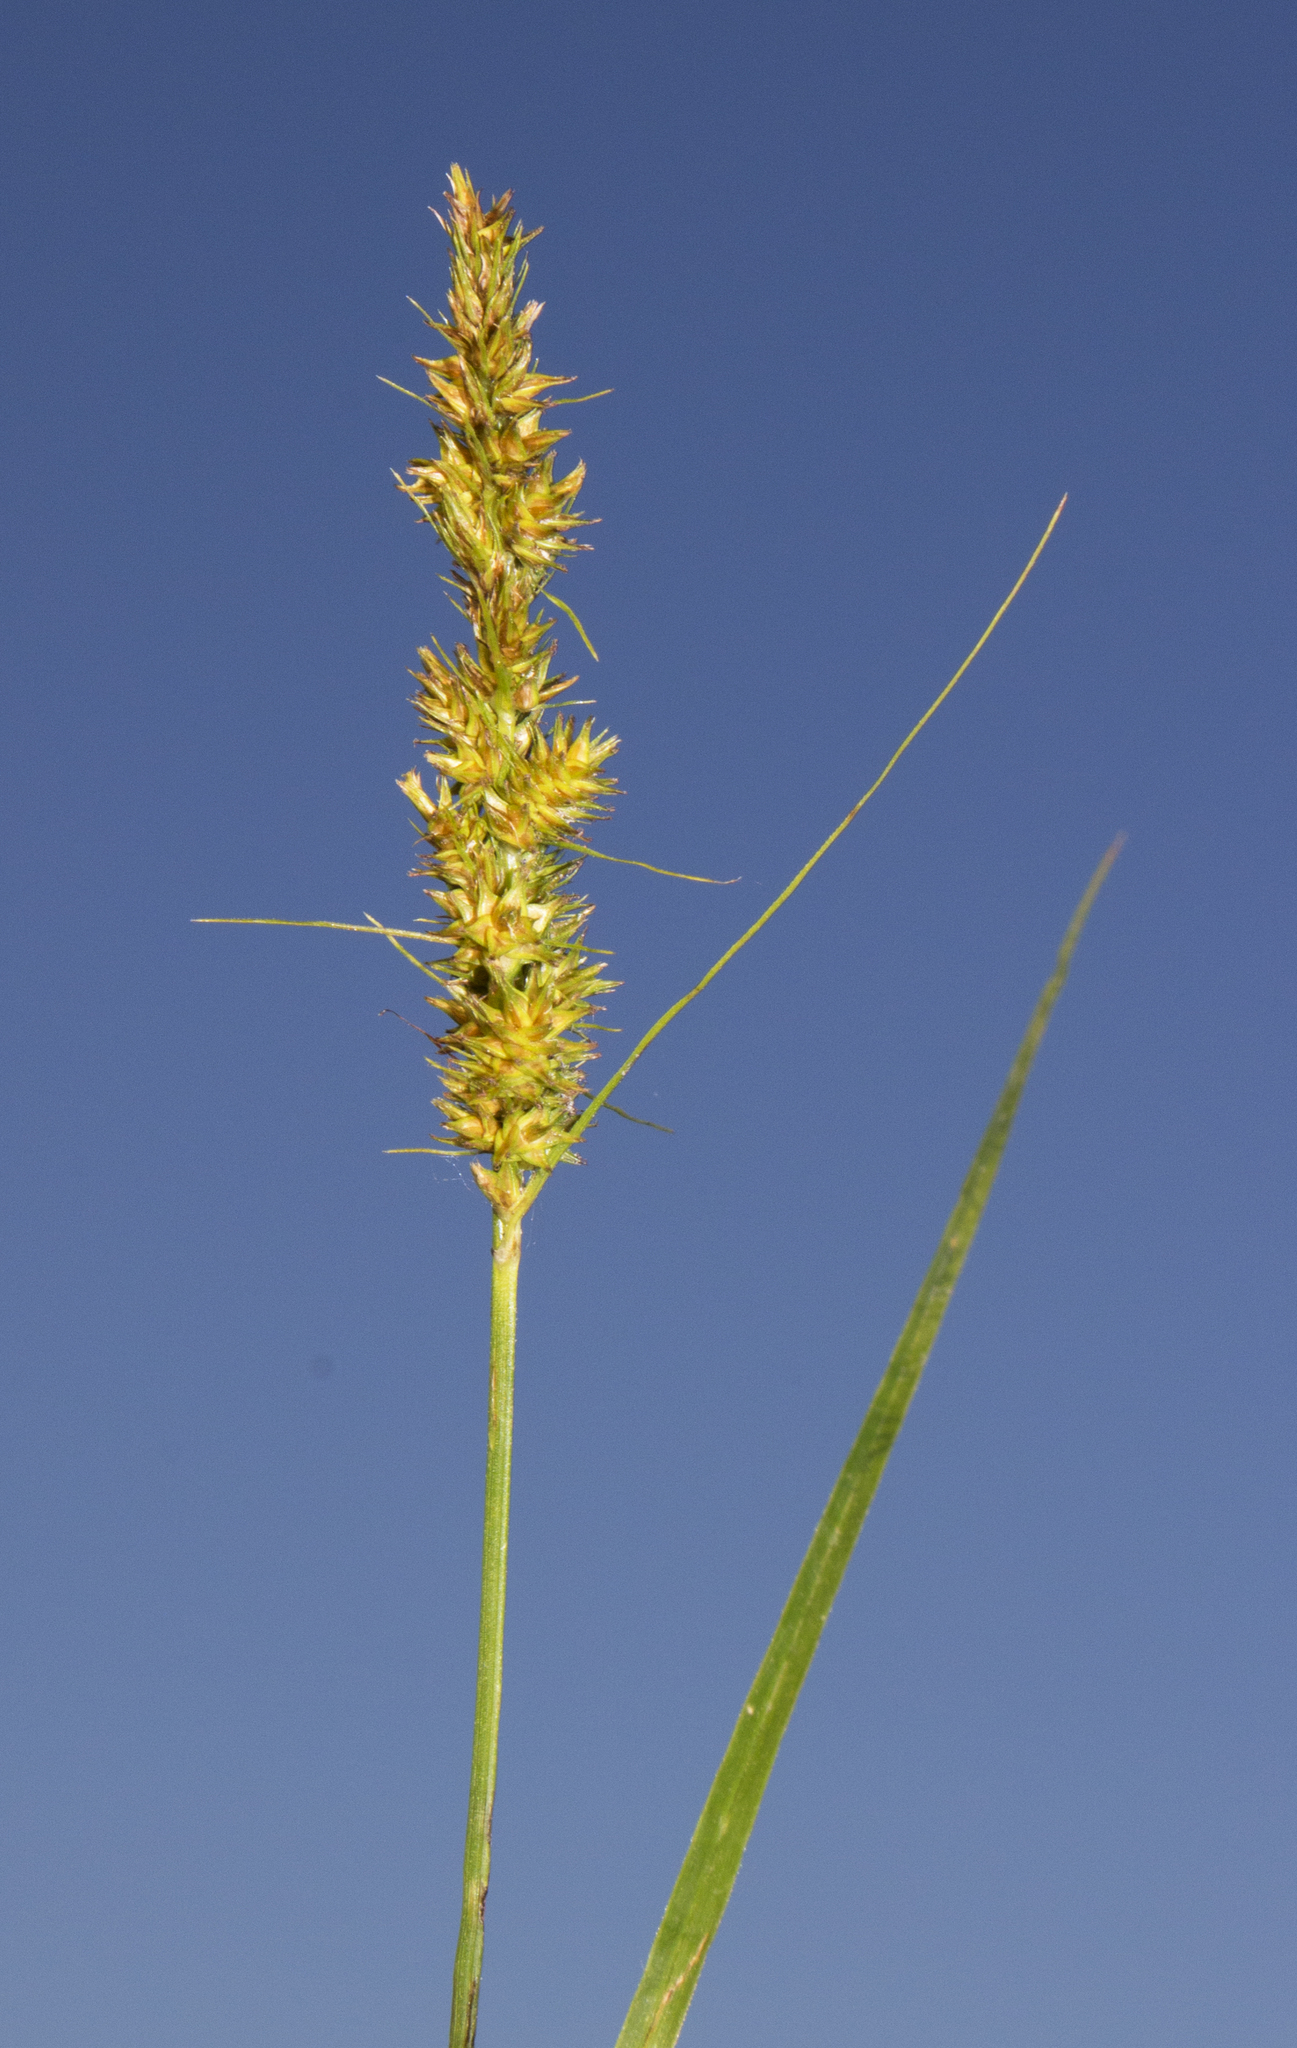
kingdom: Plantae
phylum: Tracheophyta
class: Liliopsida
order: Poales
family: Cyperaceae
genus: Carex
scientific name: Carex vulpinoidea
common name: American fox-sedge
